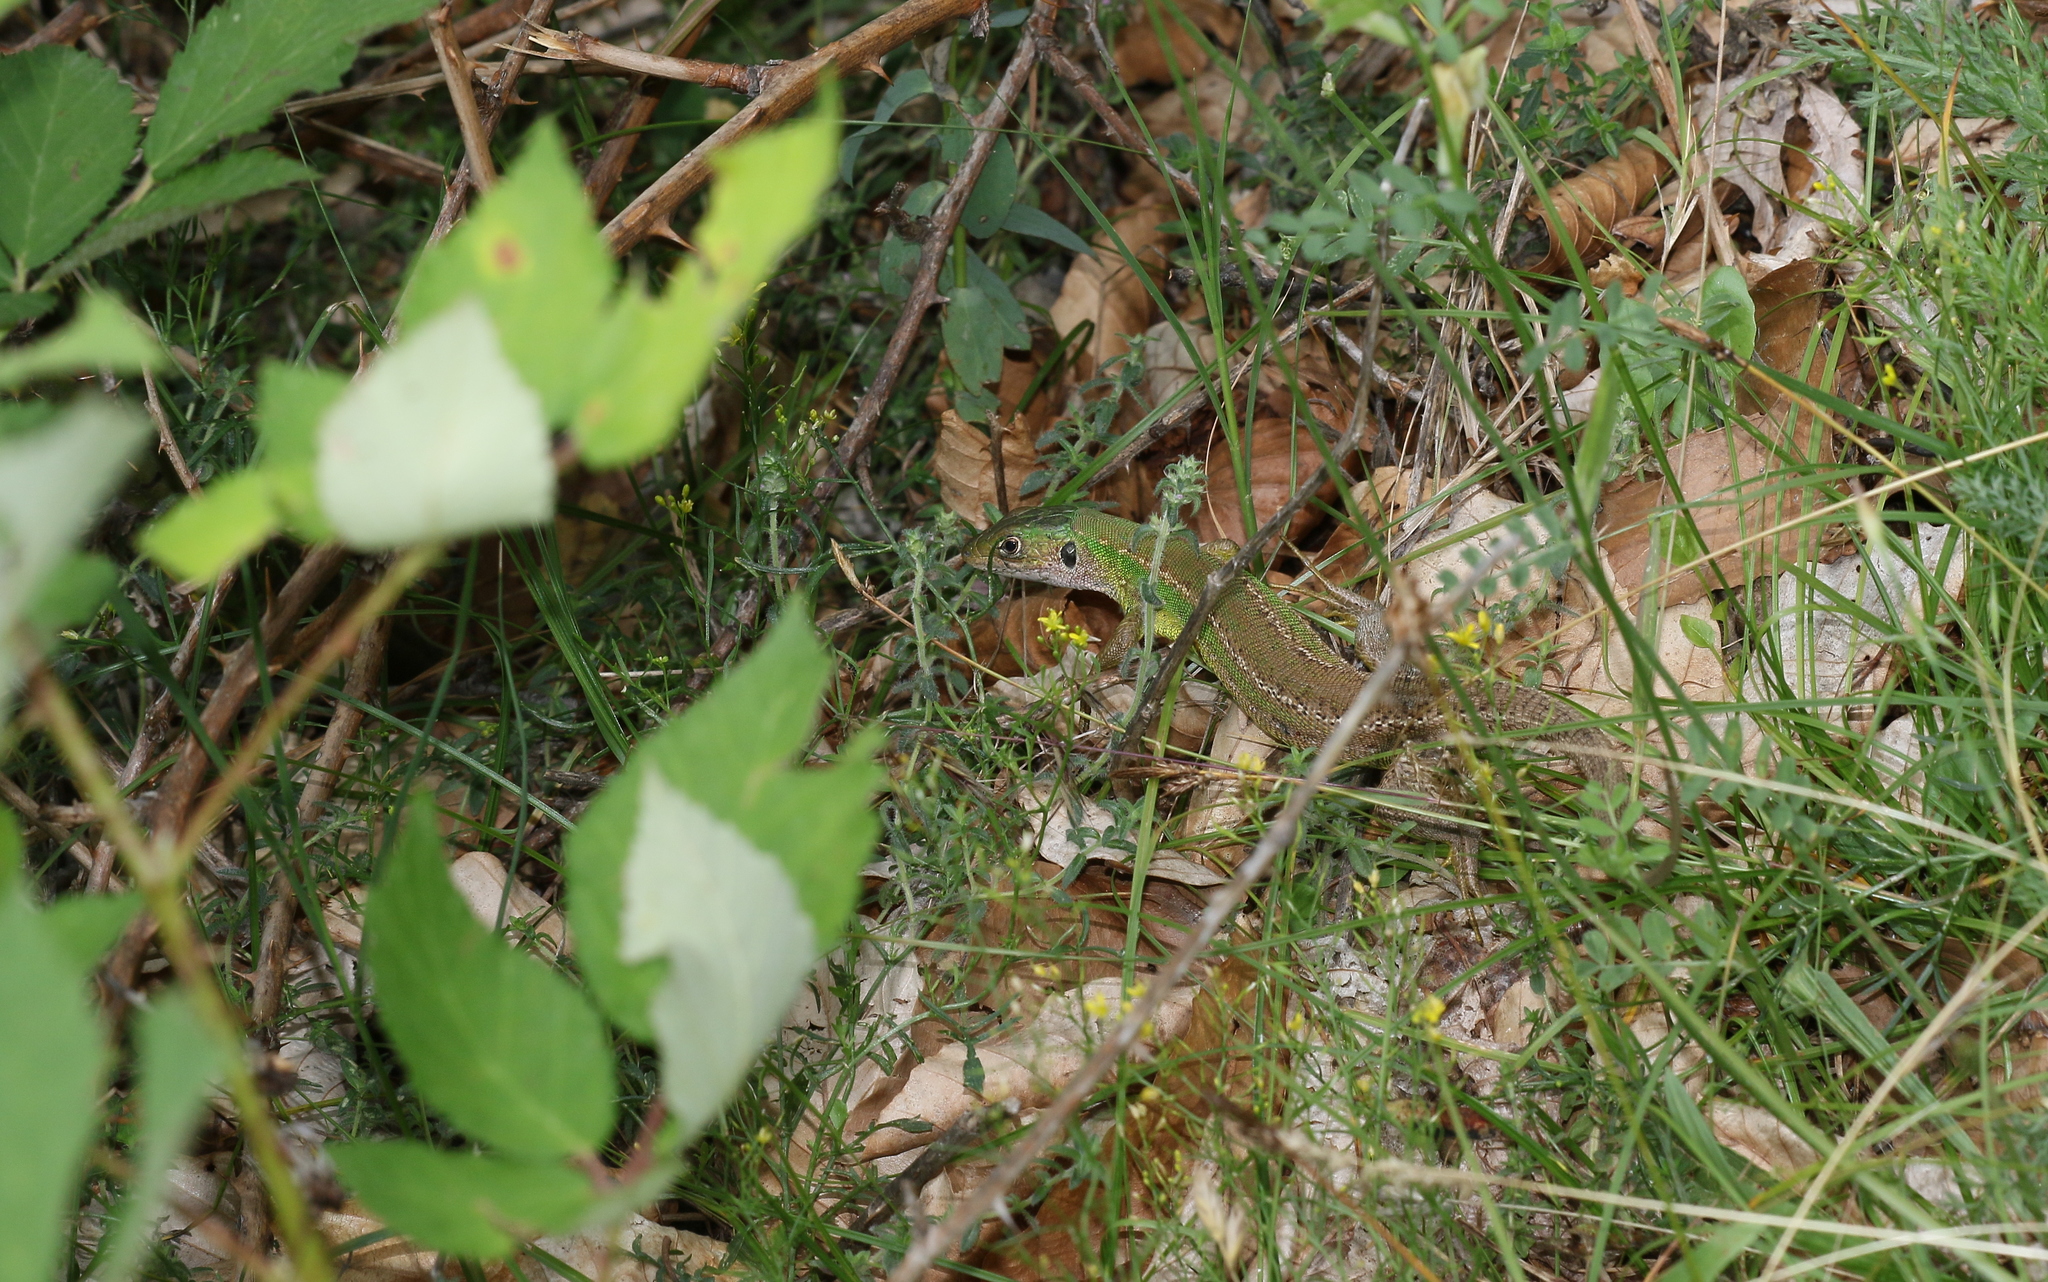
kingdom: Animalia
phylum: Chordata
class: Squamata
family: Lacertidae
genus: Lacerta
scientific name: Lacerta viridis
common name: European green lizard
